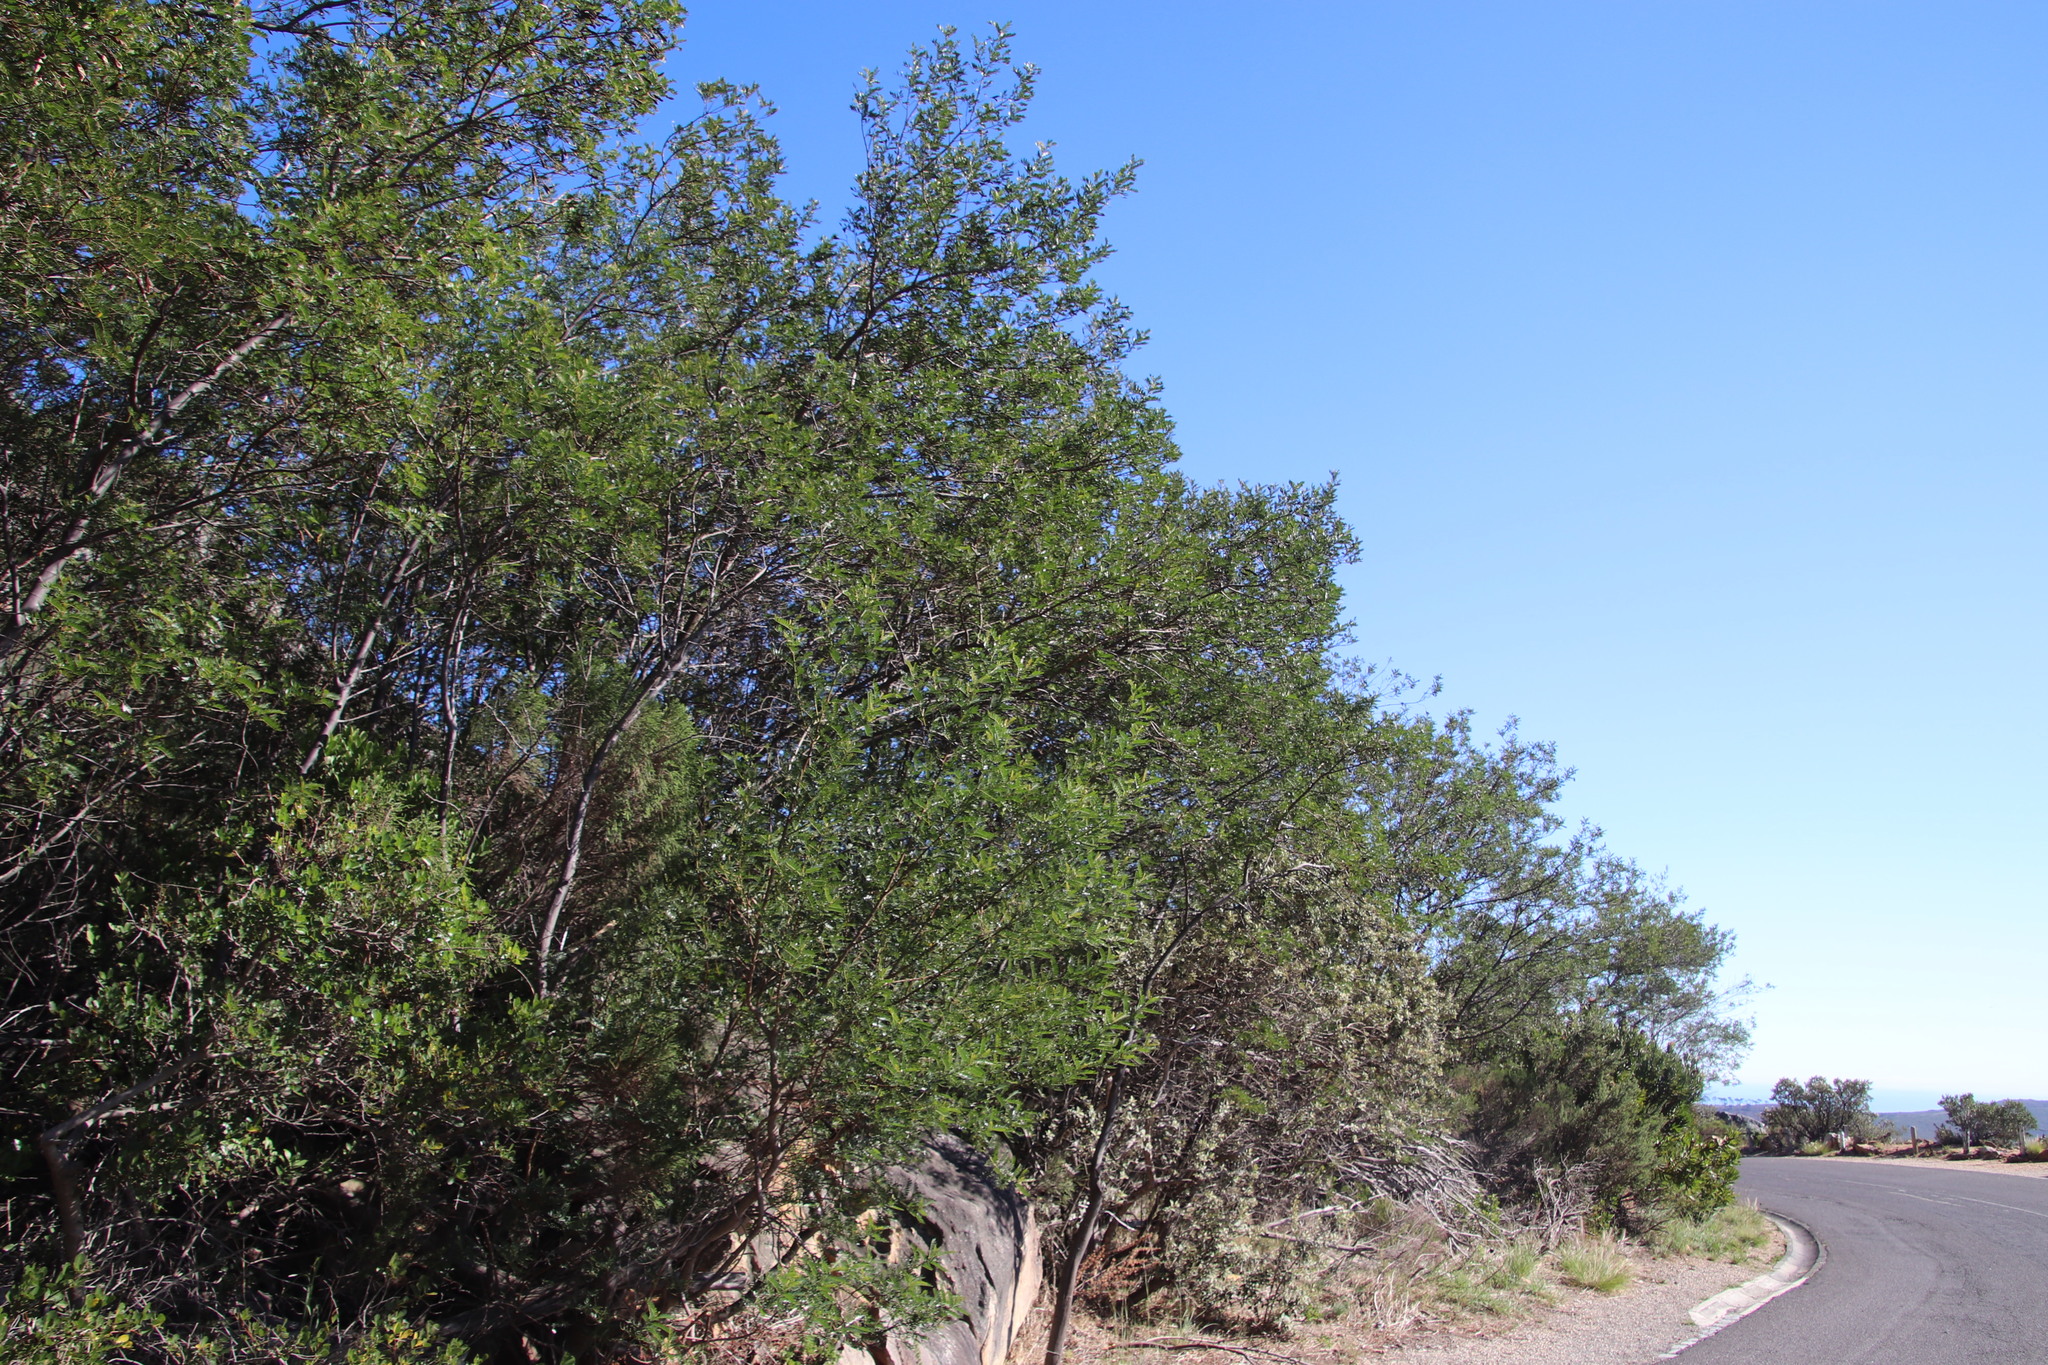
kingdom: Plantae
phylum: Tracheophyta
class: Magnoliopsida
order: Fabales
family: Fabaceae
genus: Virgilia
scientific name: Virgilia oroboides
